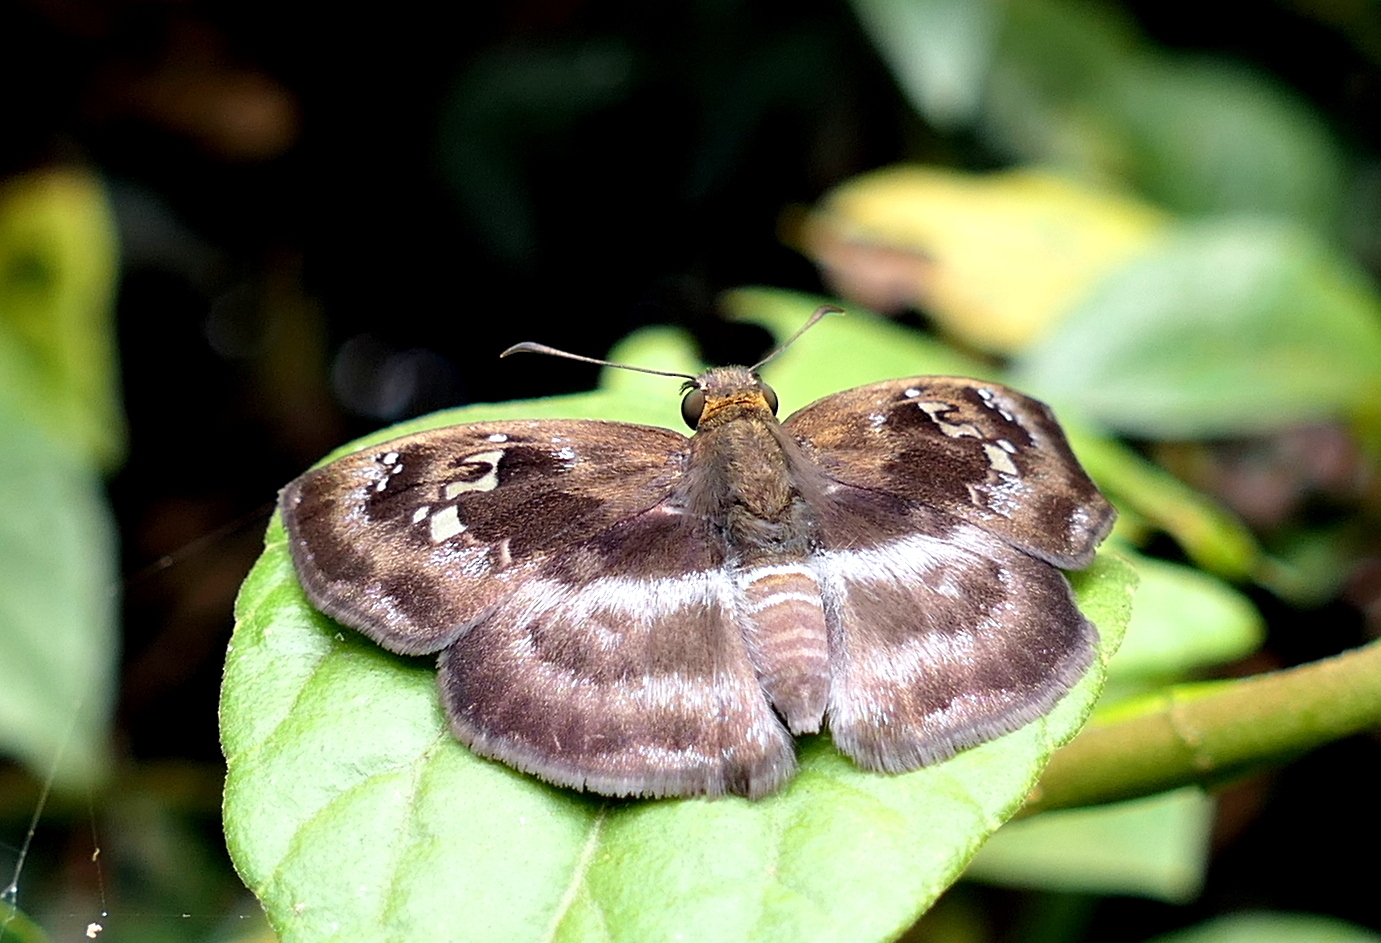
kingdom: Animalia
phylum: Arthropoda
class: Insecta
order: Lepidoptera
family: Hesperiidae
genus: Quadrus
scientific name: Quadrus cerialis
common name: Common blue-skipper
